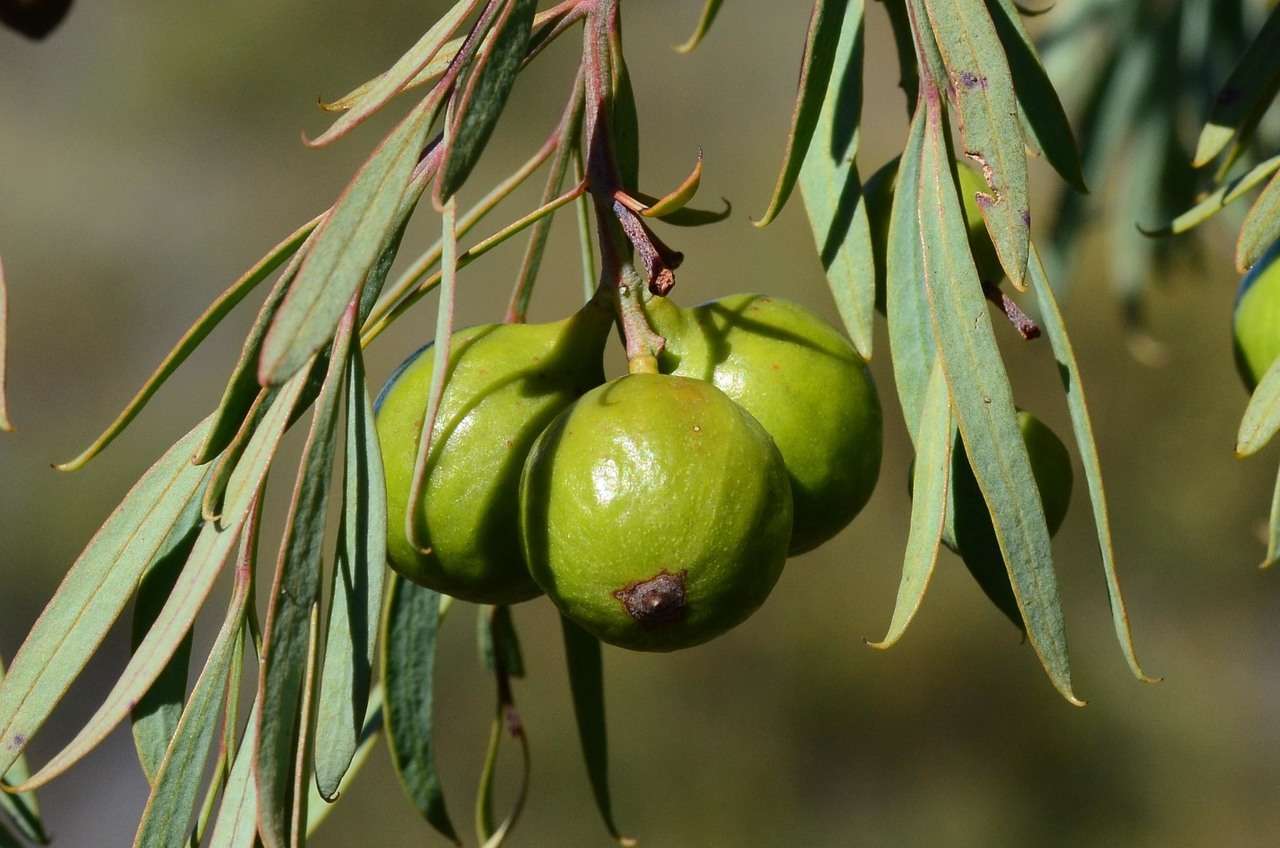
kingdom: Plantae
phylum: Tracheophyta
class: Magnoliopsida
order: Santalales
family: Santalaceae
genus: Santalum
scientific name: Santalum murrayanum
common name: Bitter quandong
